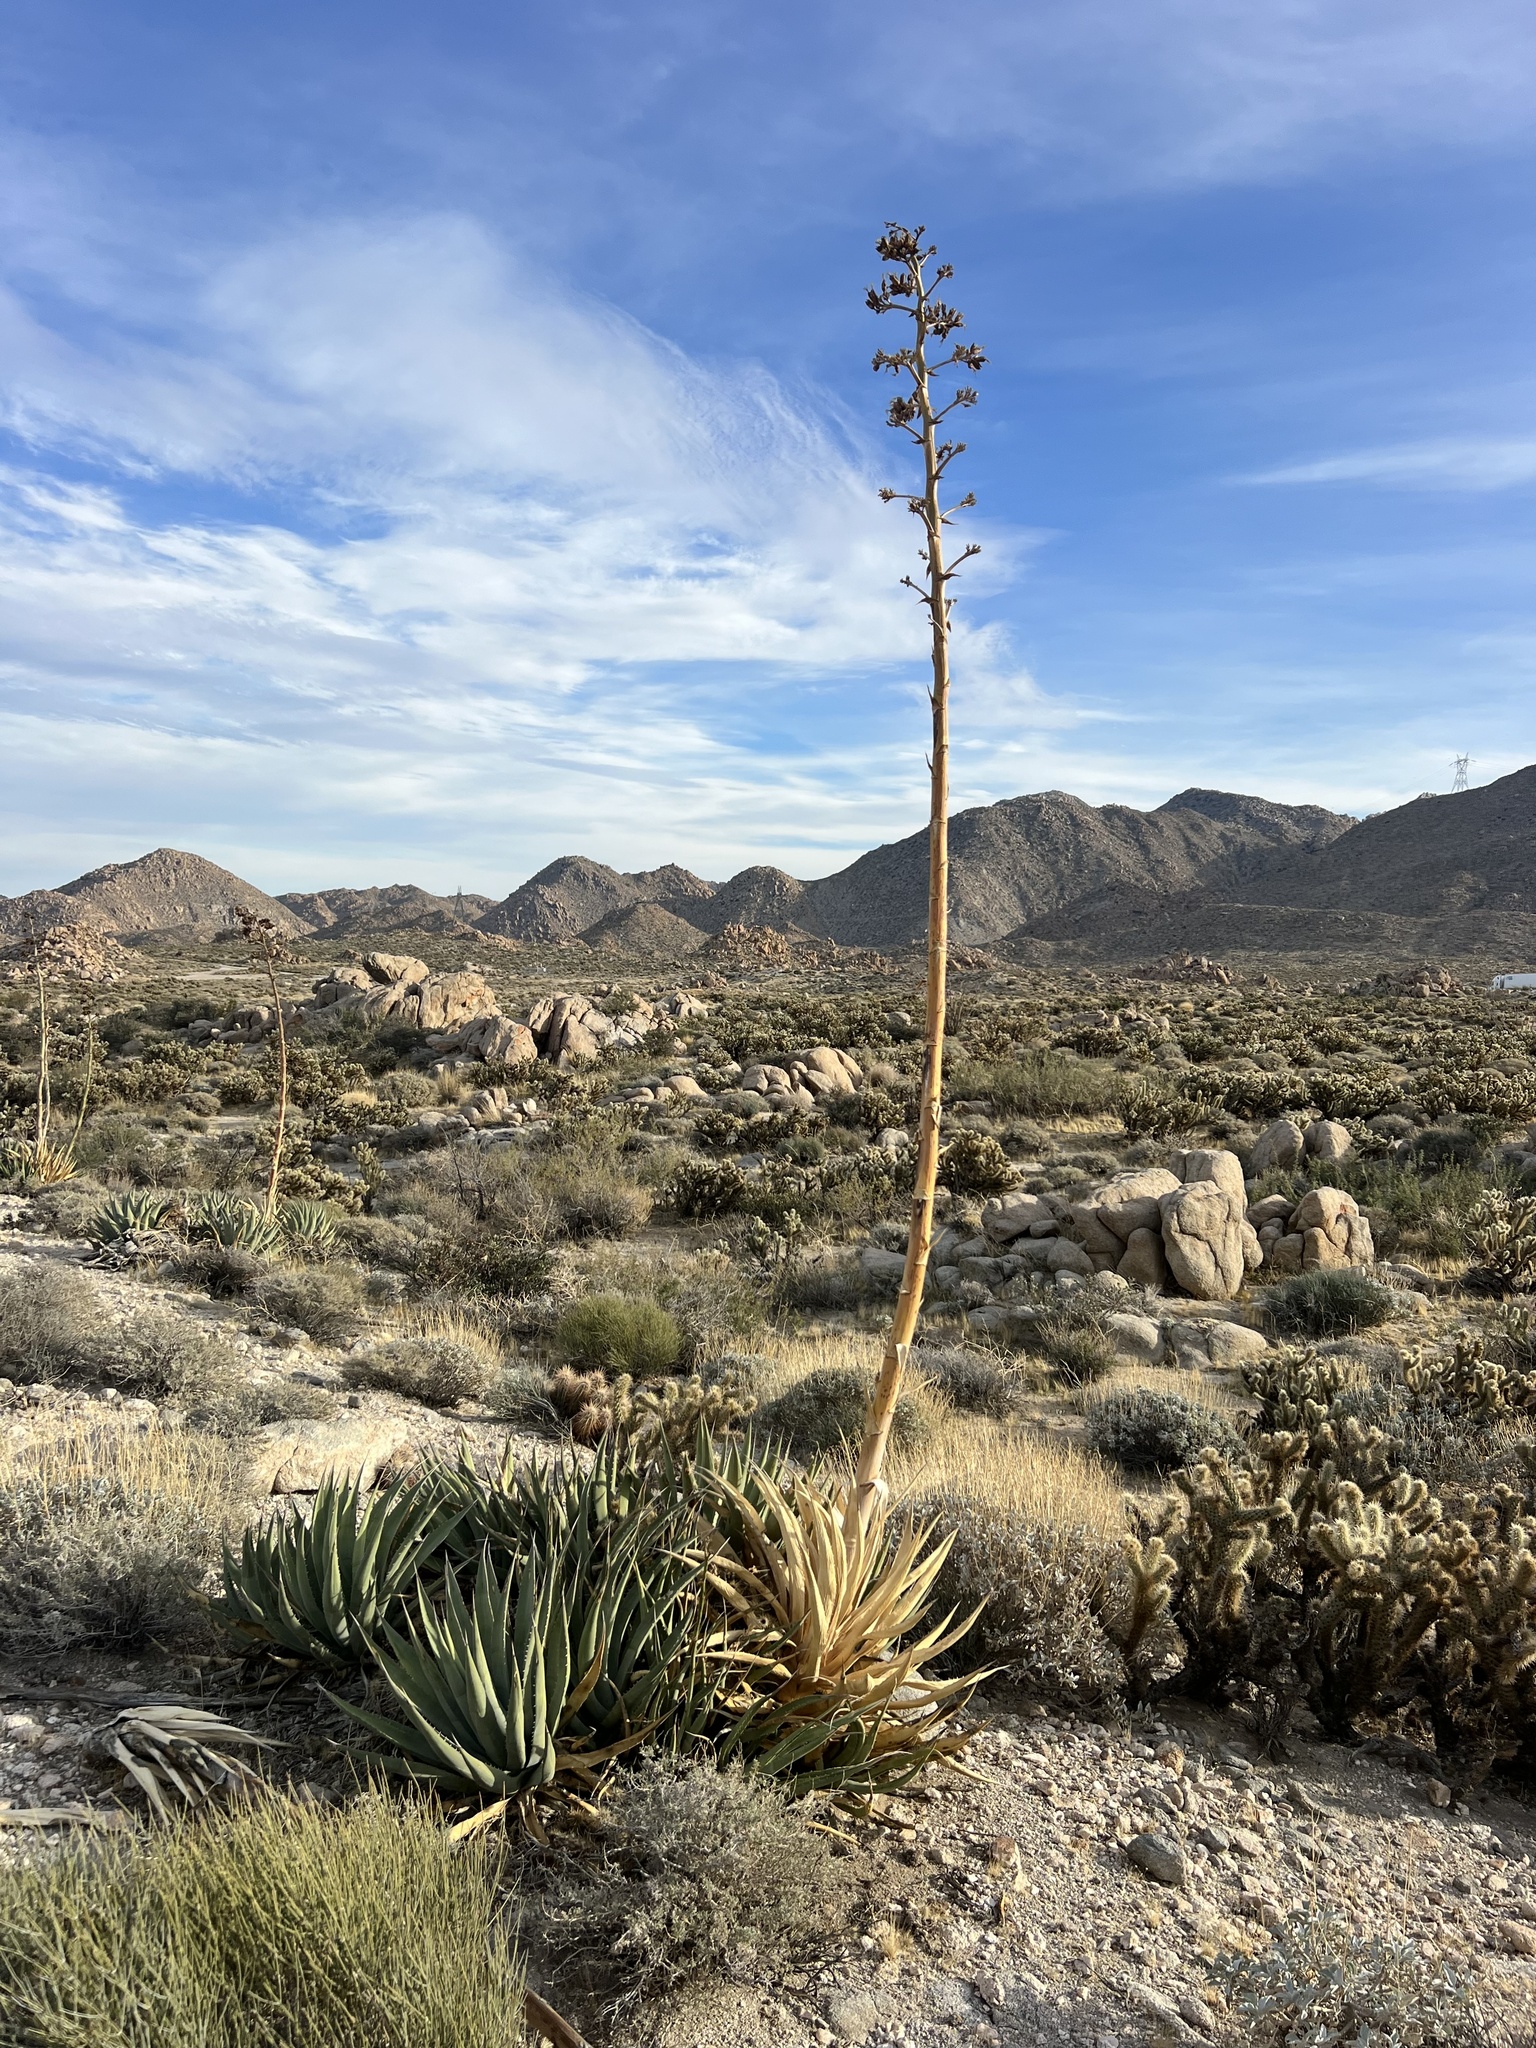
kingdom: Plantae
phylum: Tracheophyta
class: Liliopsida
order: Asparagales
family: Asparagaceae
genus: Agave
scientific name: Agave deserti
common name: Desert agave
